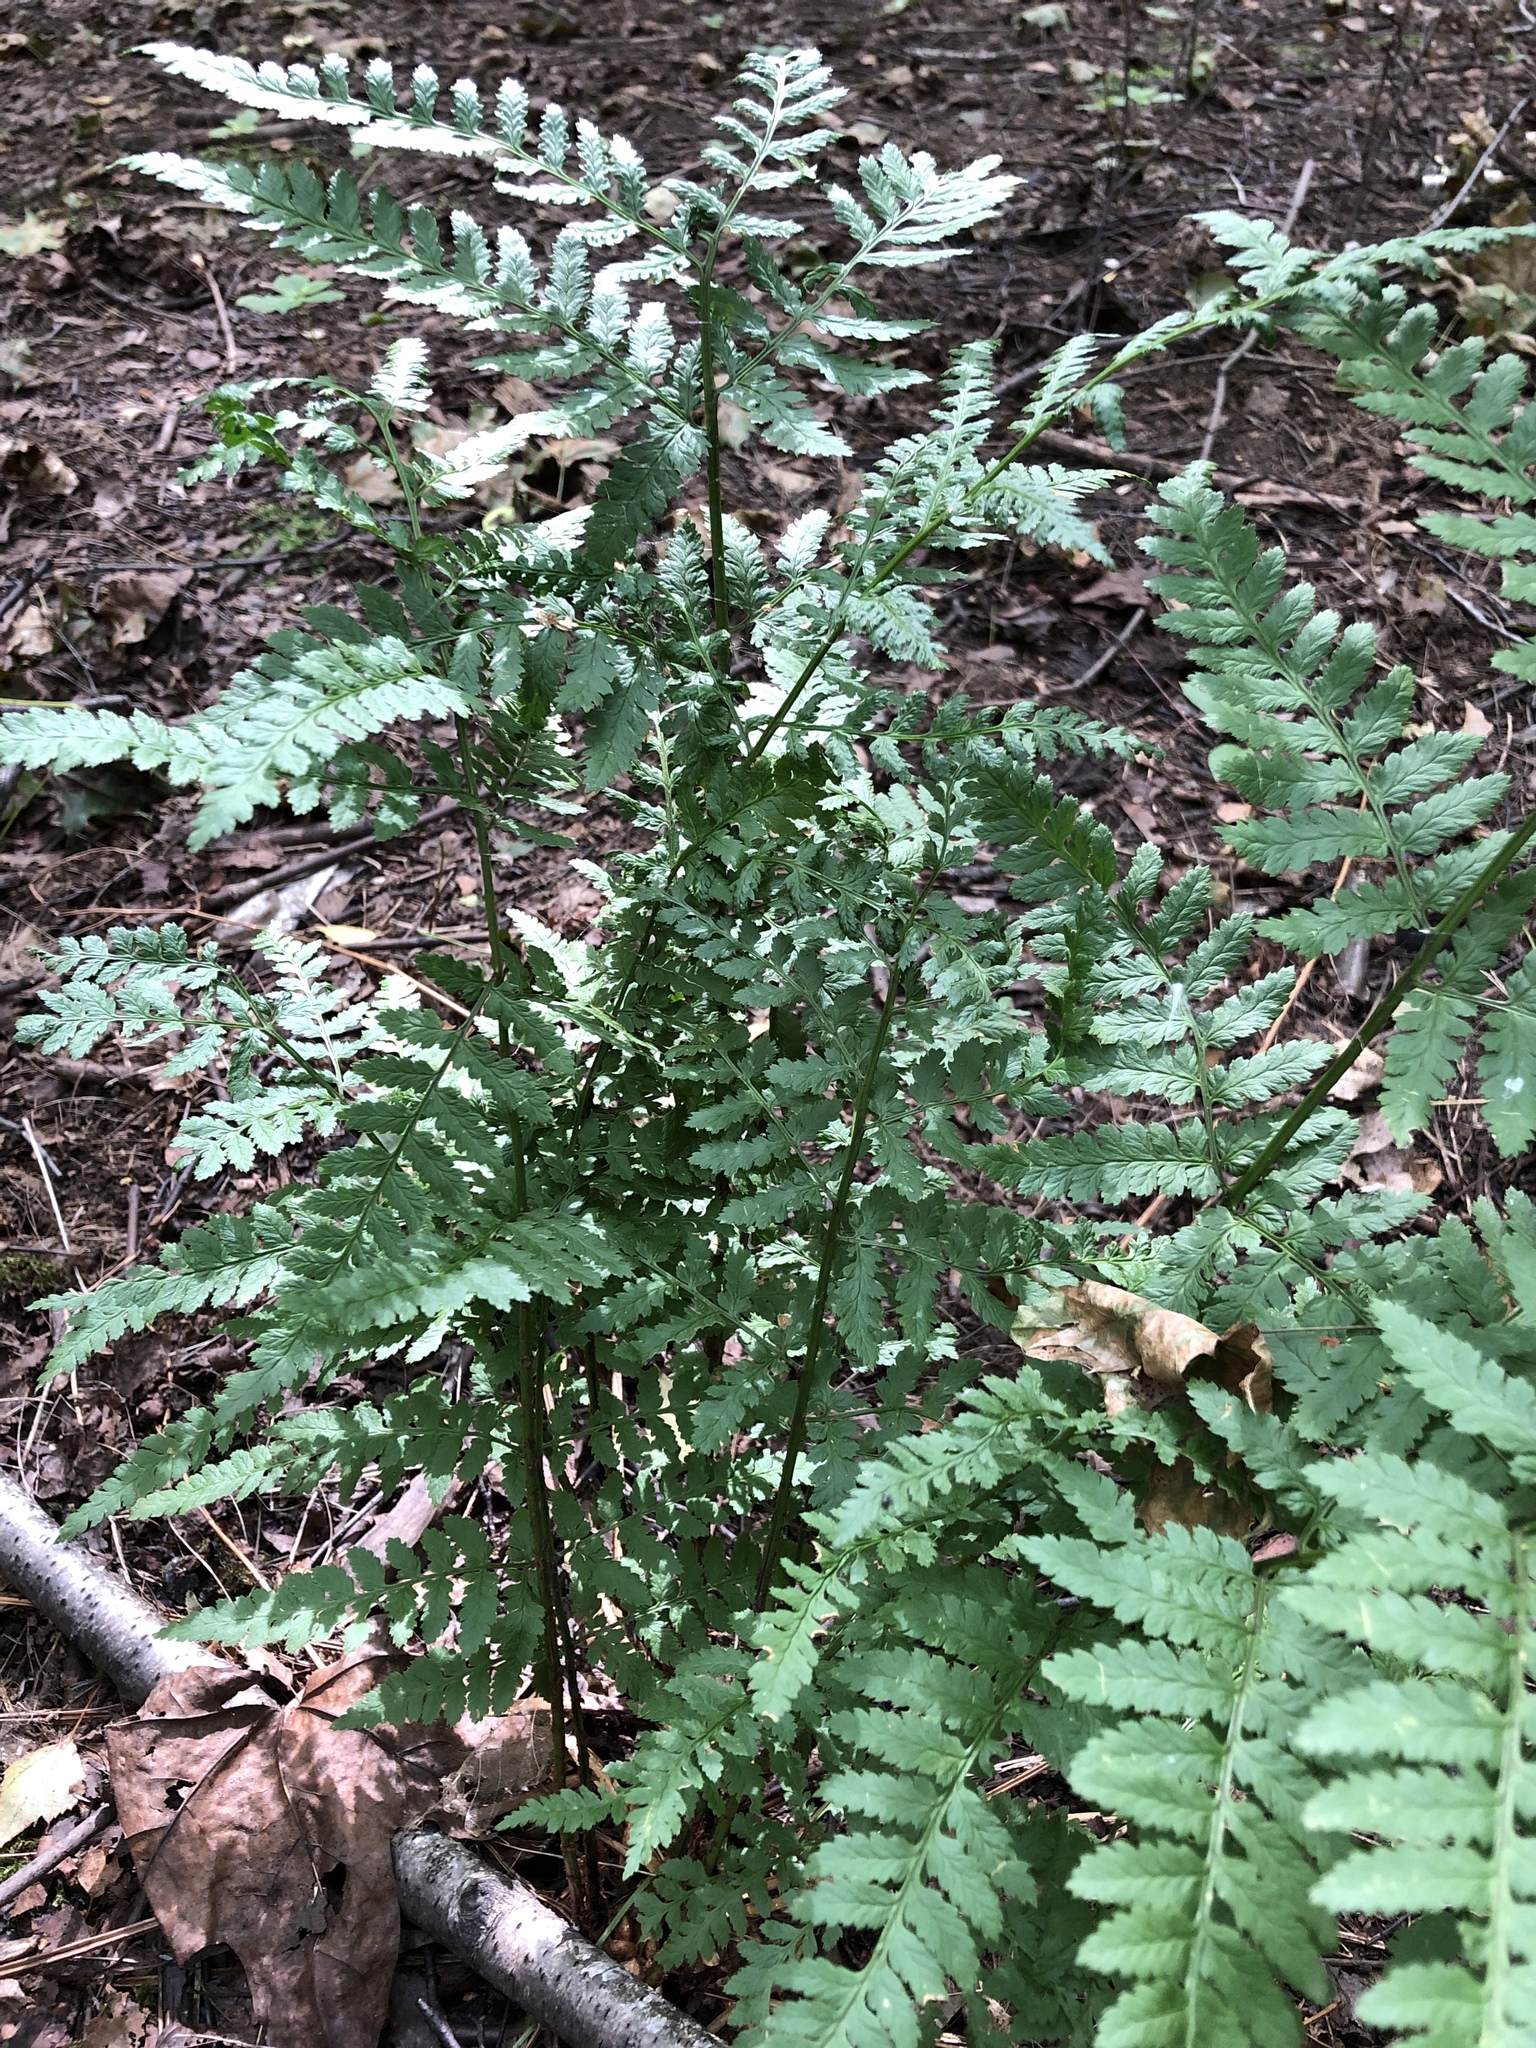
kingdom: Plantae
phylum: Tracheophyta
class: Polypodiopsida
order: Polypodiales
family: Dryopteridaceae
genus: Dryopteris
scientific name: Dryopteris carthusiana
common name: Narrow buckler-fern
